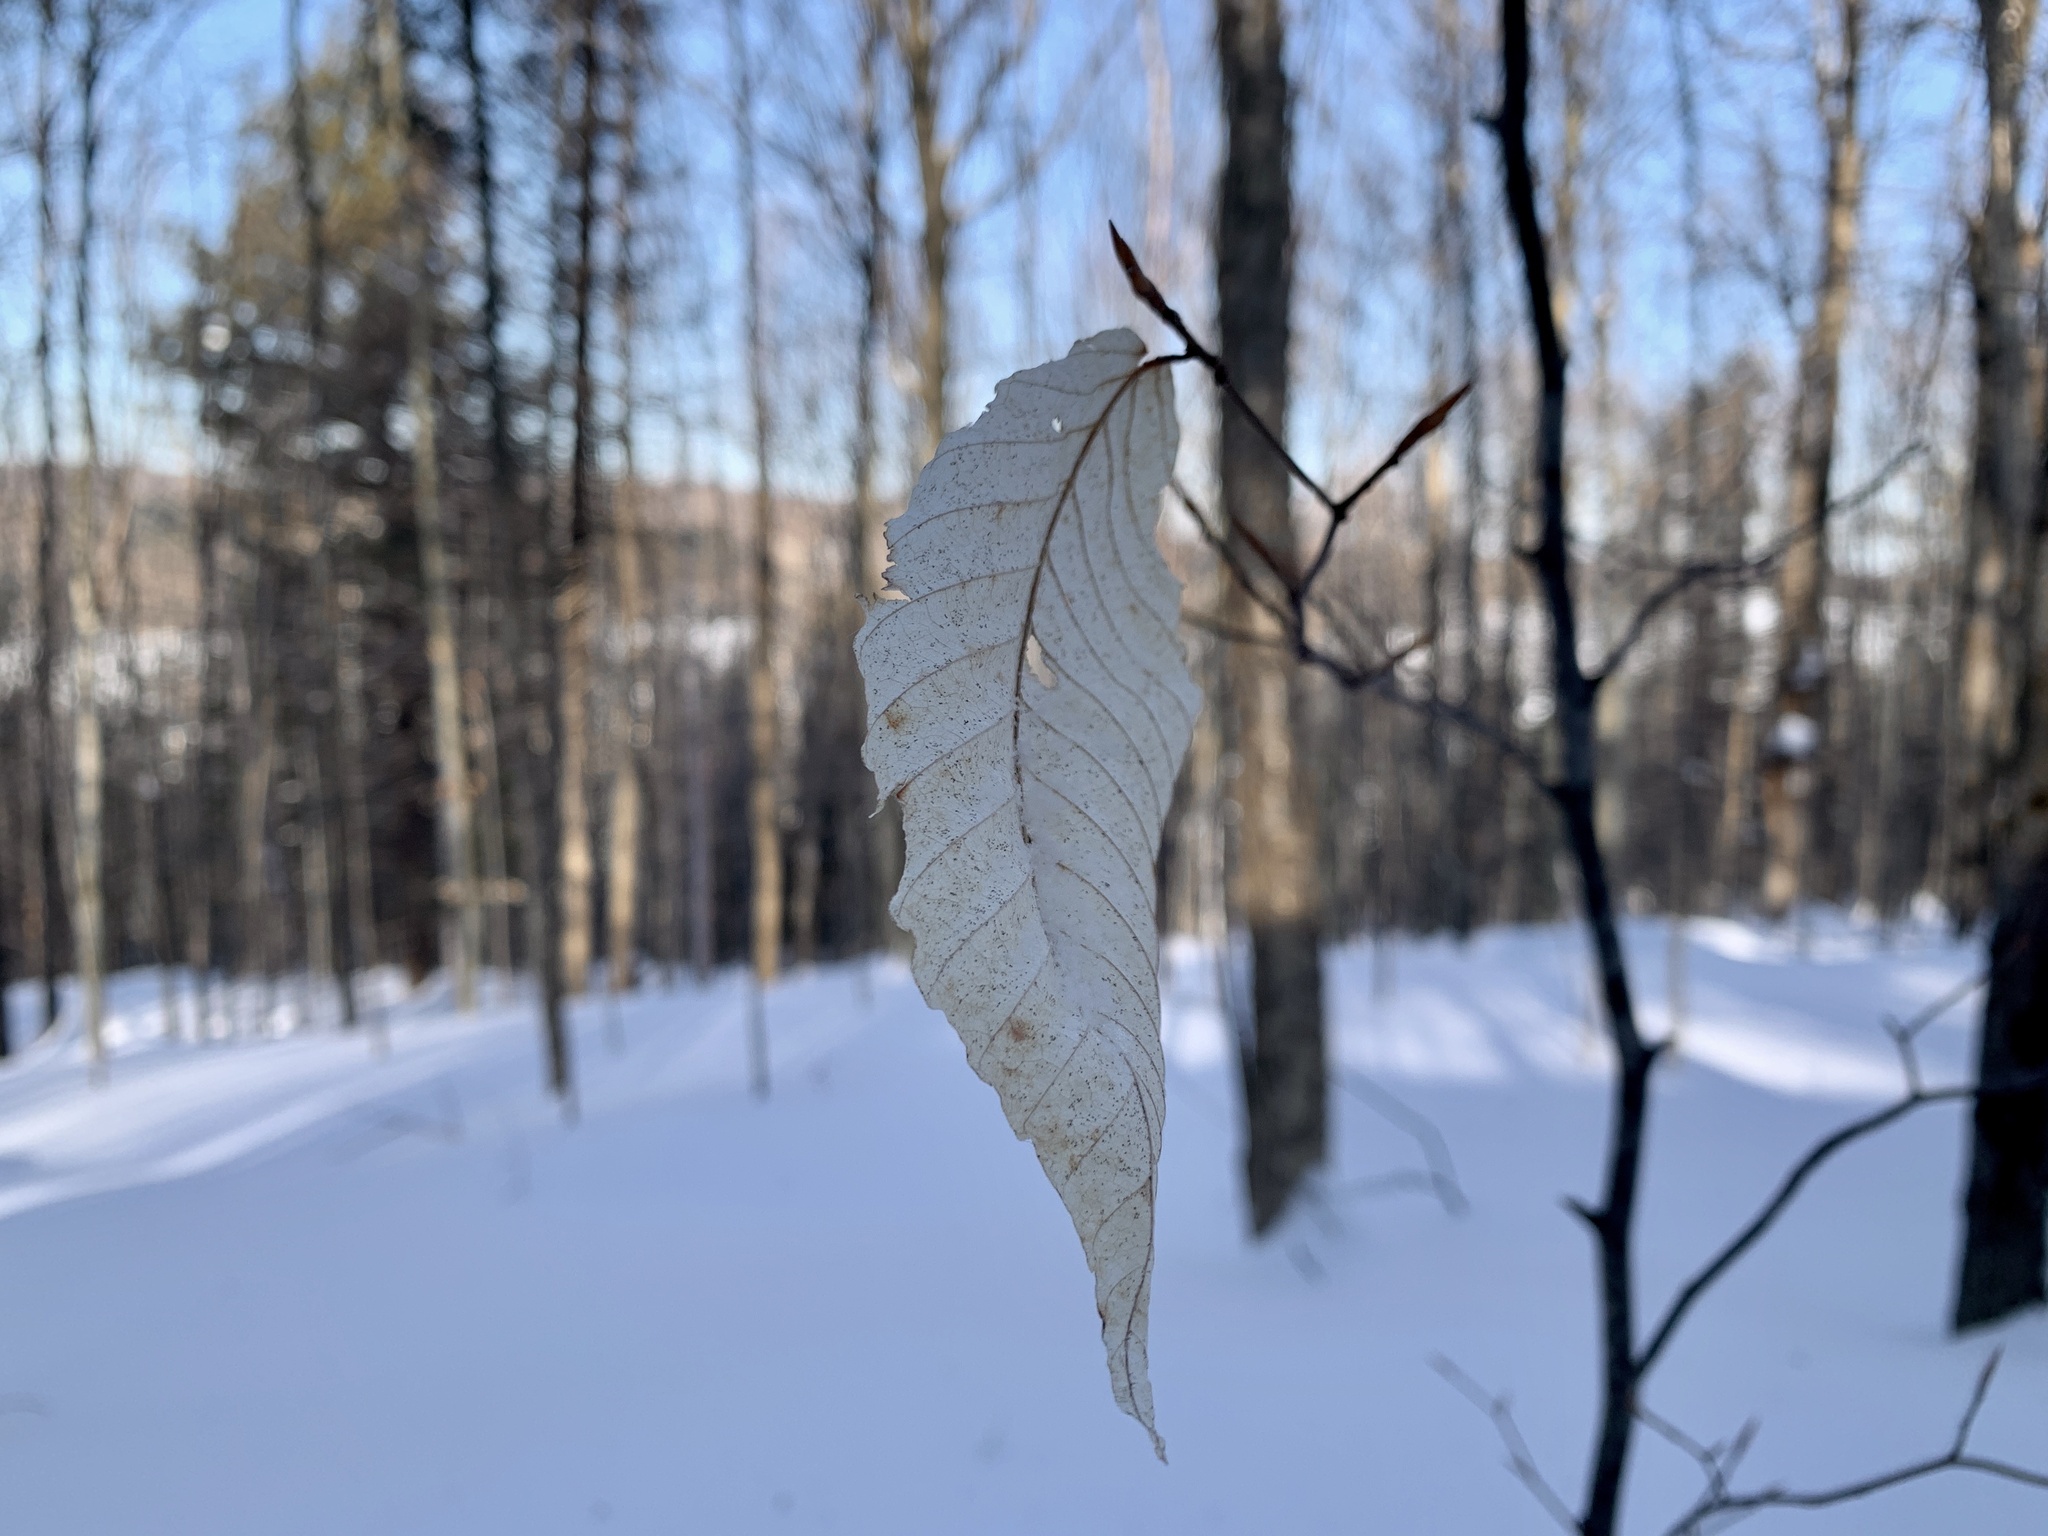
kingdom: Plantae
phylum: Tracheophyta
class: Magnoliopsida
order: Fagales
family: Fagaceae
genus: Fagus
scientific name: Fagus grandifolia
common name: American beech
